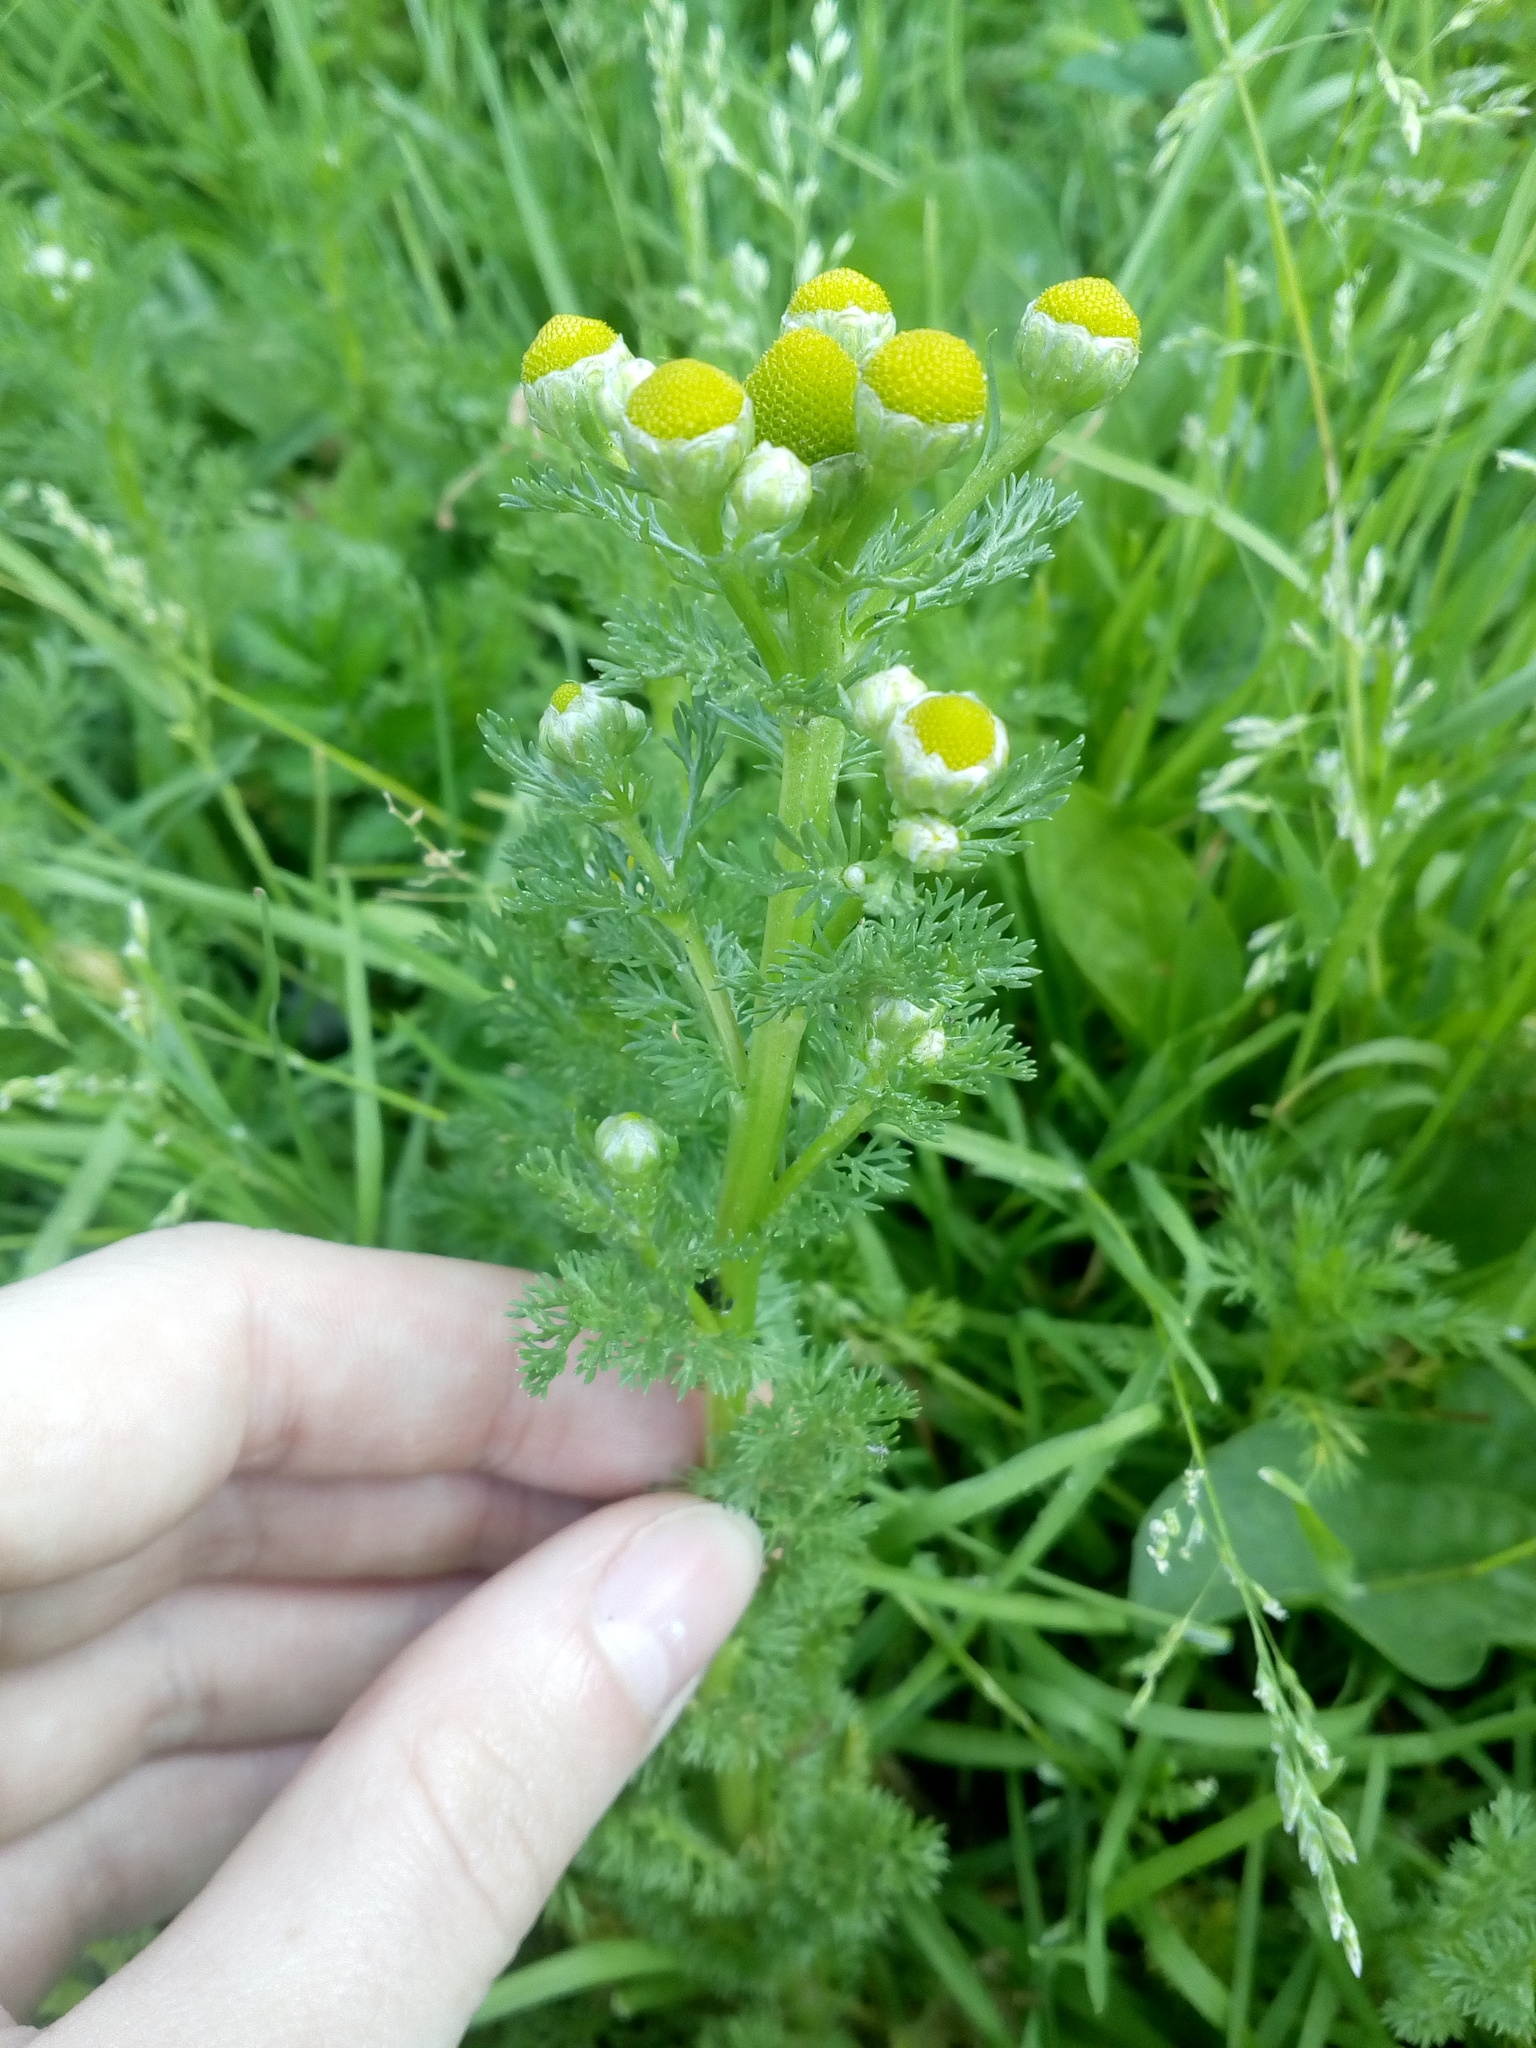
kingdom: Plantae
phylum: Tracheophyta
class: Magnoliopsida
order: Asterales
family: Asteraceae
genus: Matricaria
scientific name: Matricaria discoidea
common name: Disc mayweed
